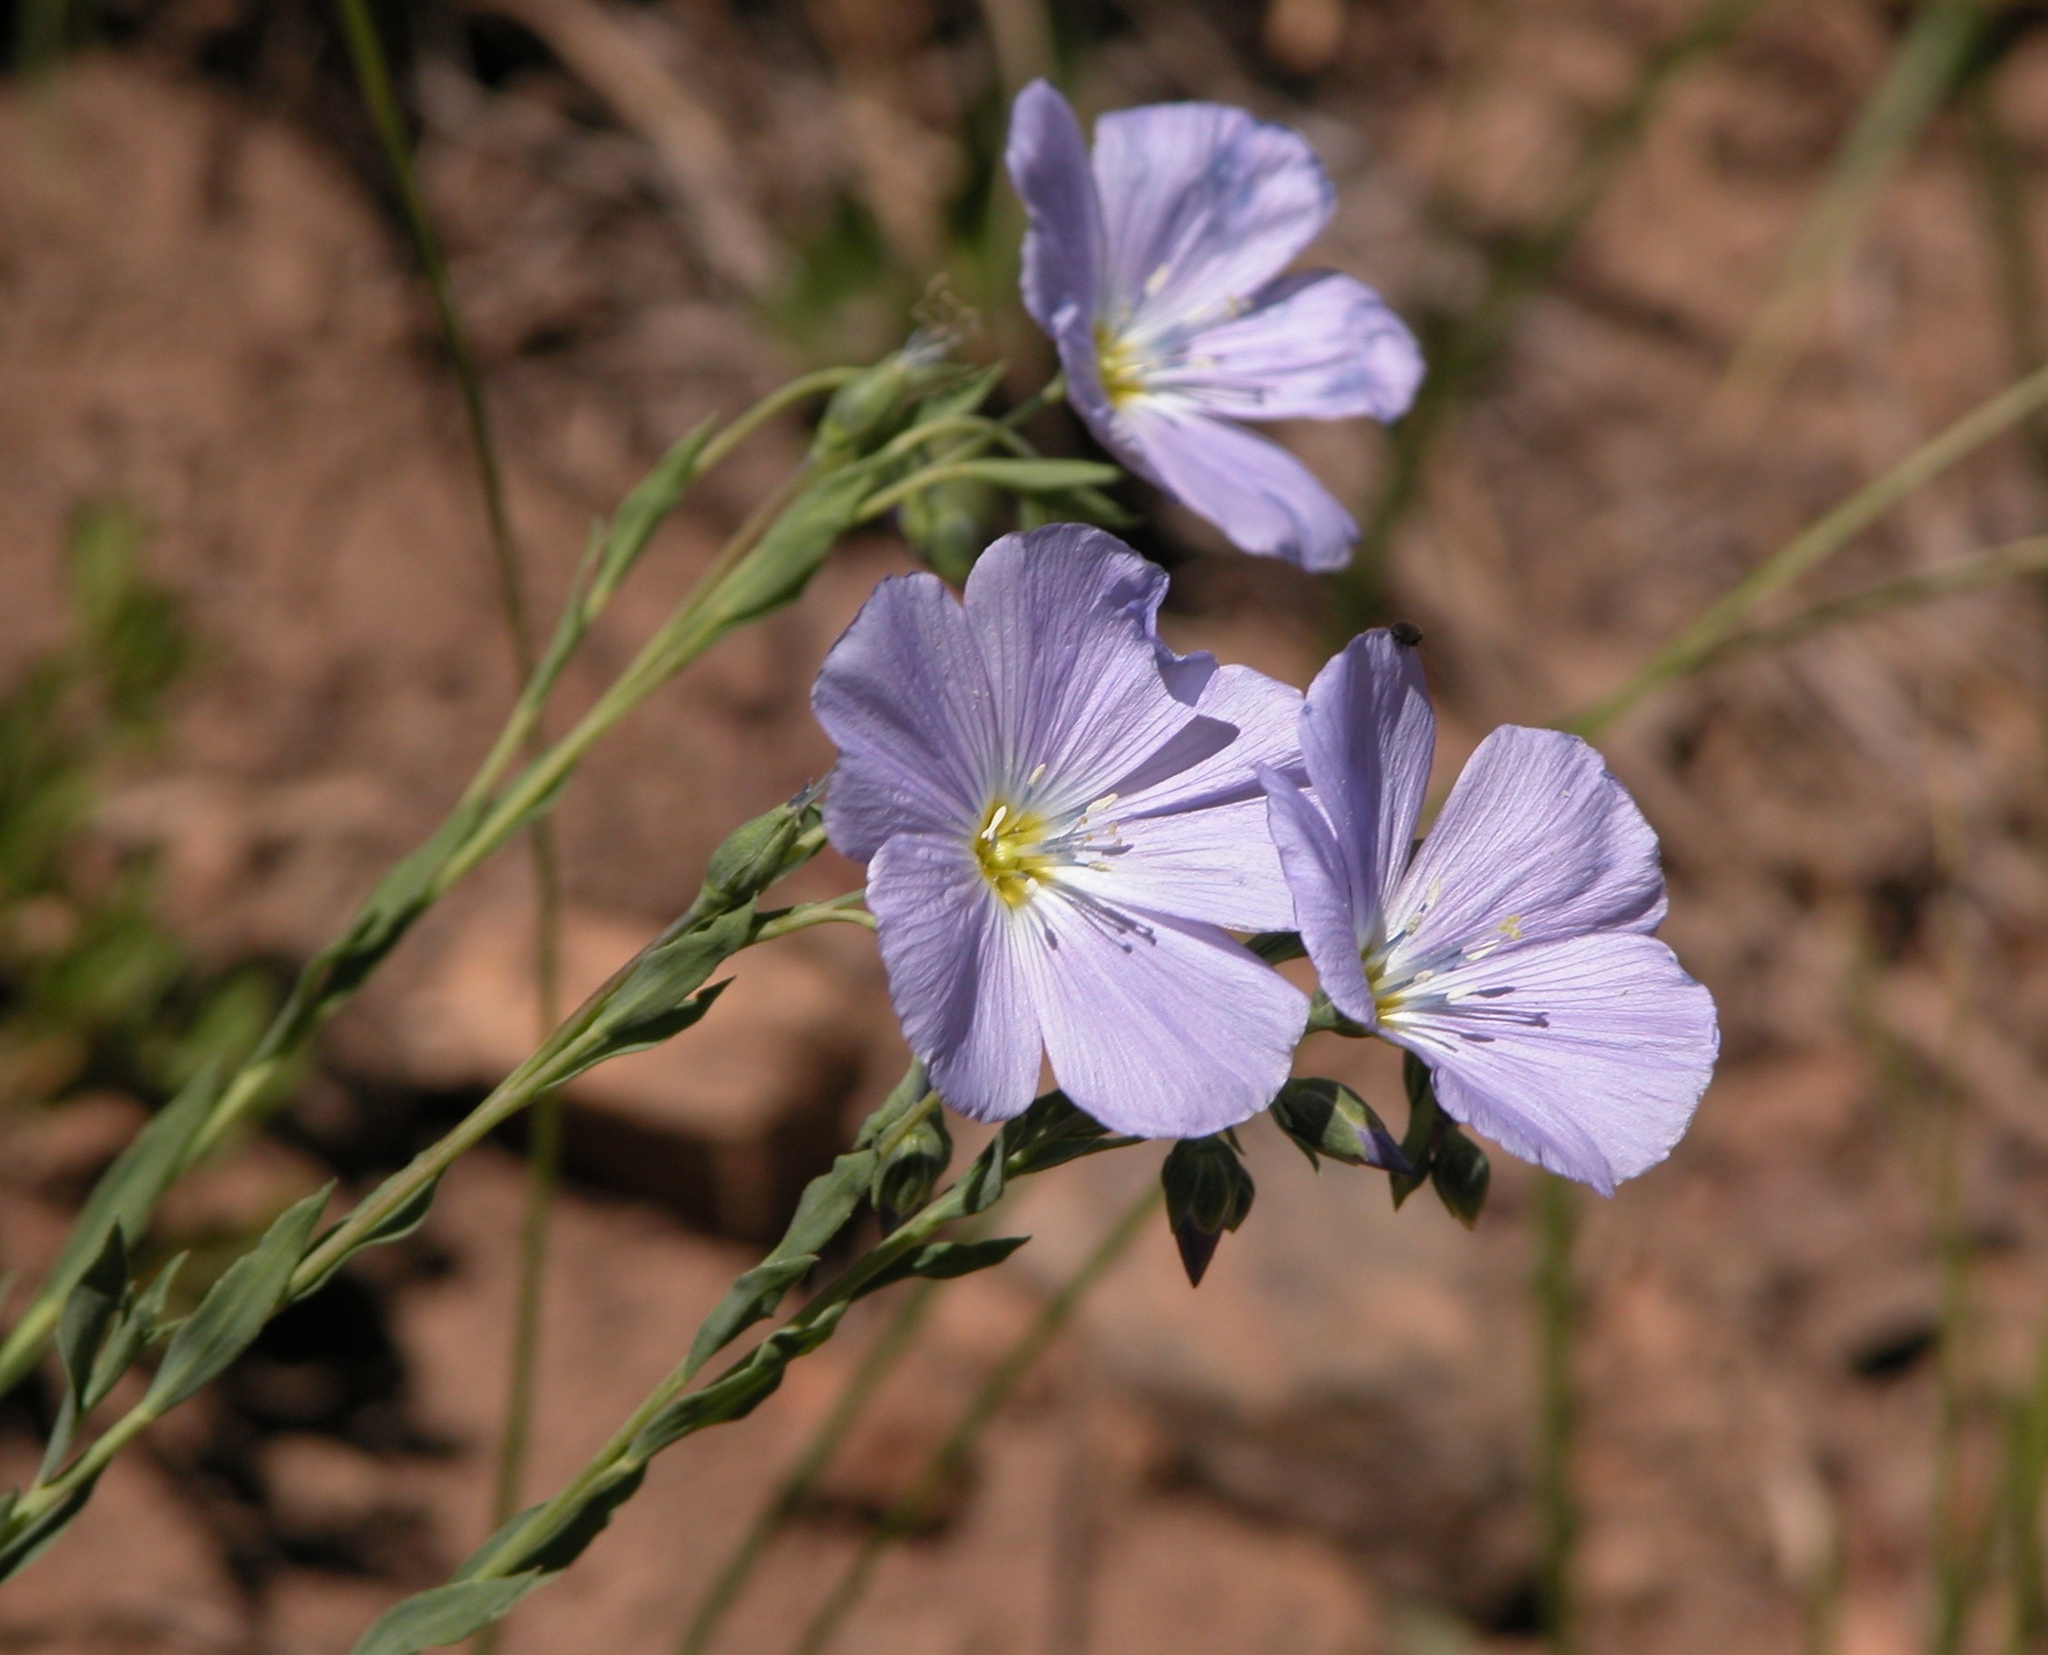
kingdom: Plantae
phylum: Tracheophyta
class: Magnoliopsida
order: Malpighiales
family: Linaceae
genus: Linum
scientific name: Linum lewisii
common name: Prairie flax
